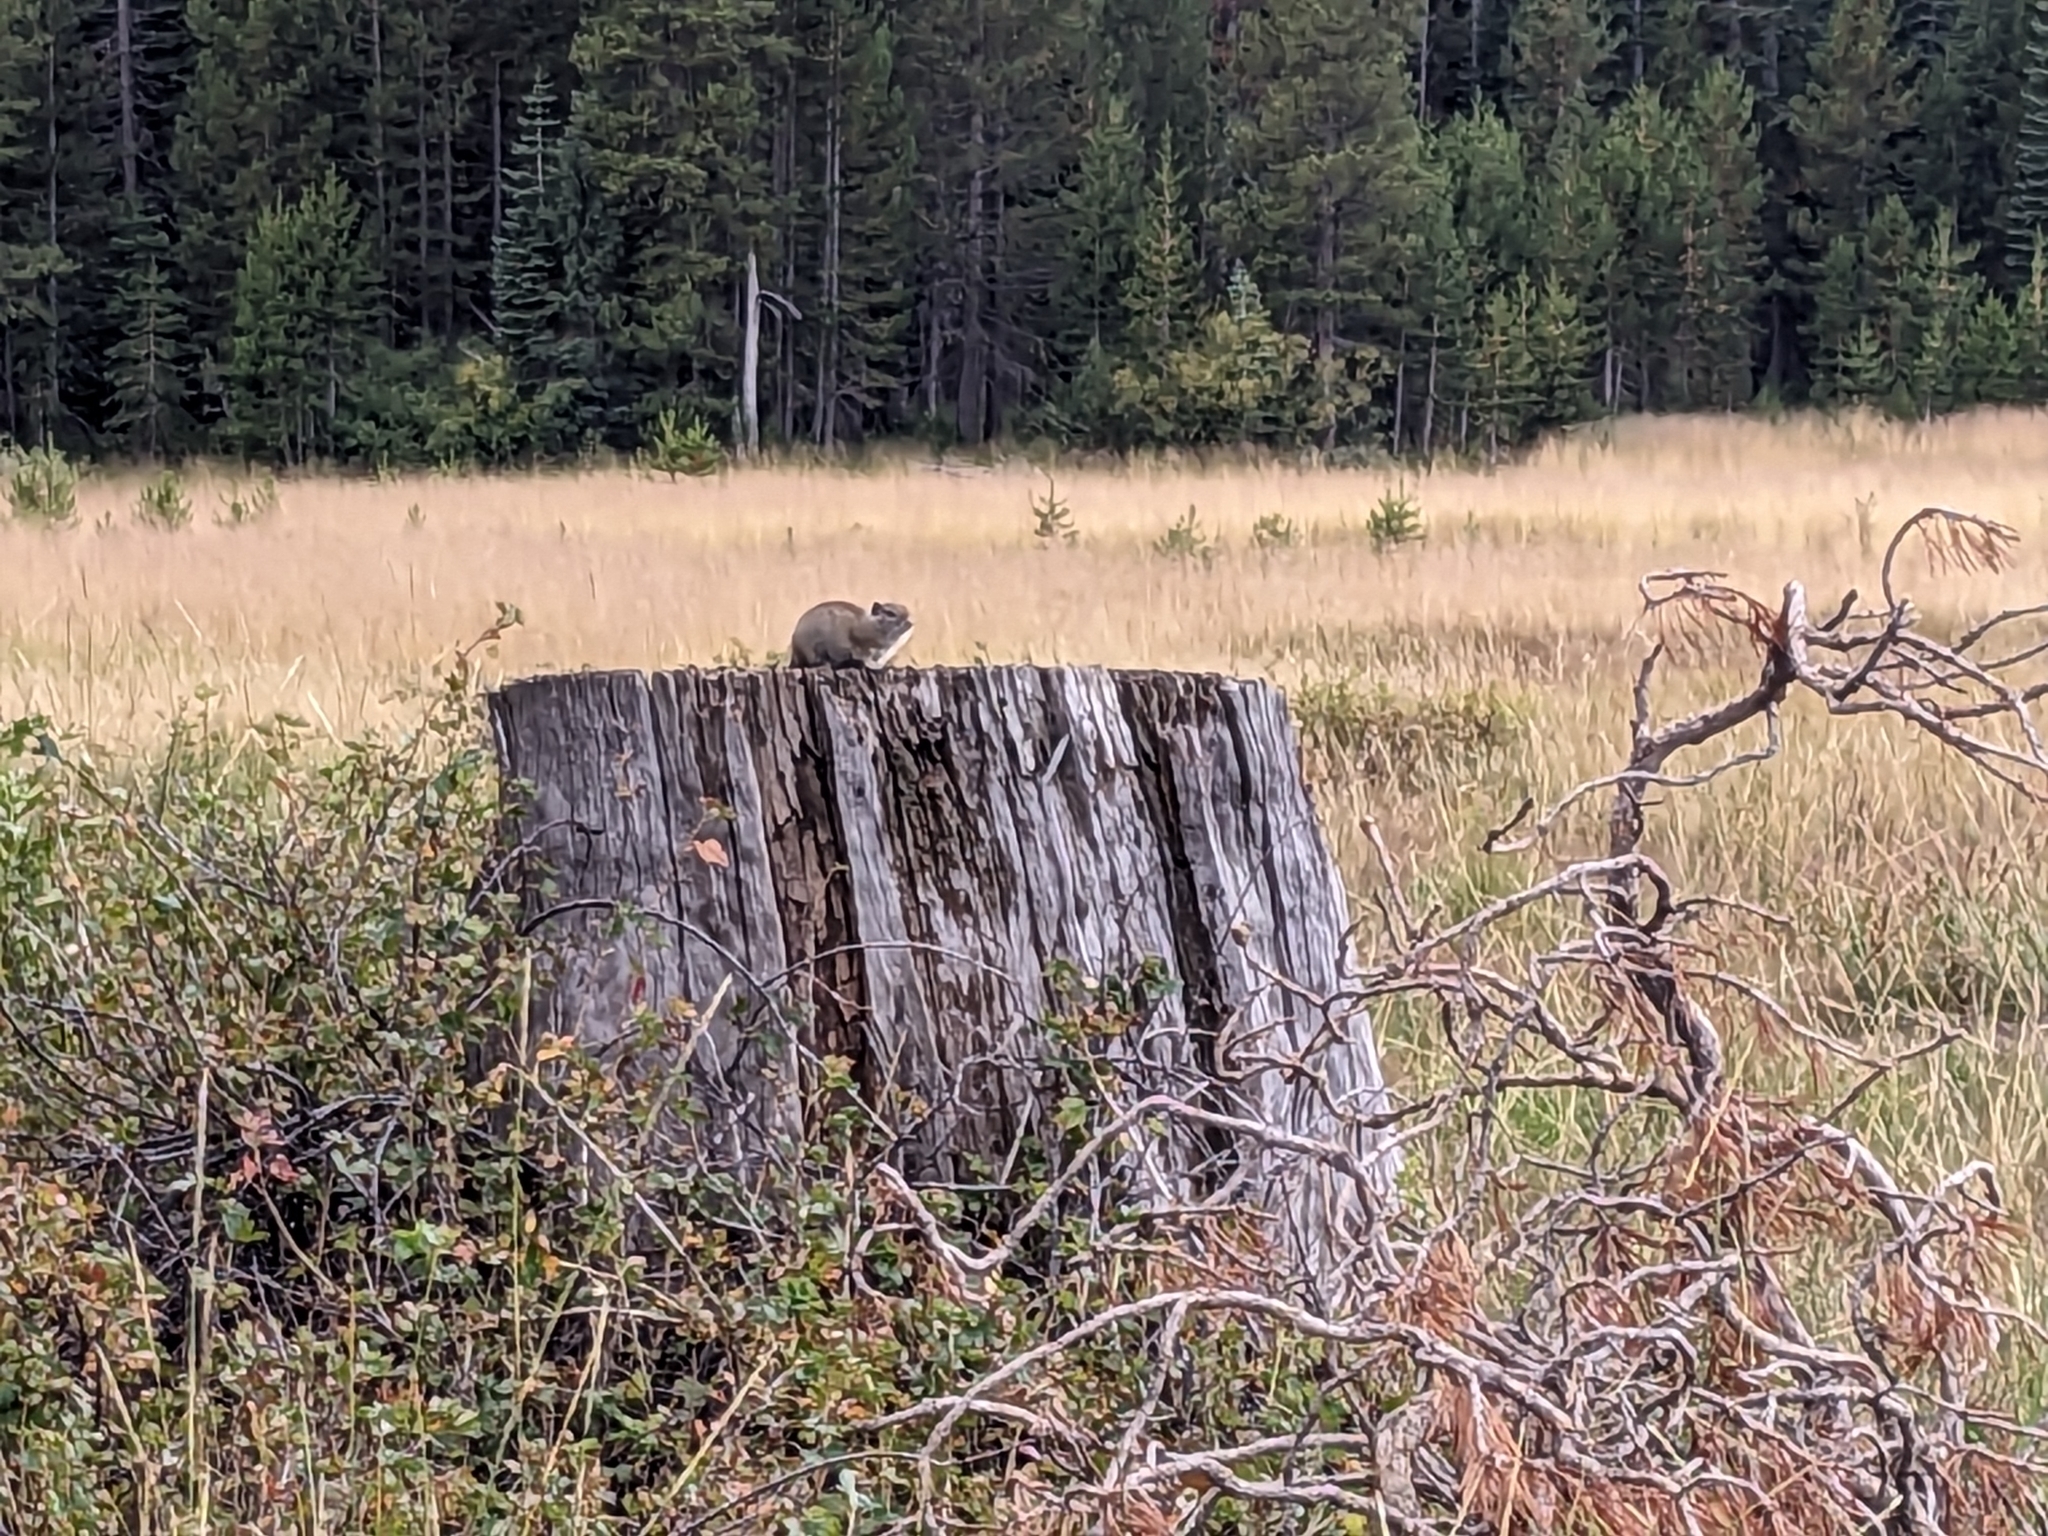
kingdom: Animalia
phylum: Chordata
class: Mammalia
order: Rodentia
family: Sciuridae
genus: Urocitellus
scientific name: Urocitellus beldingi
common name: Belding's ground squirrel
